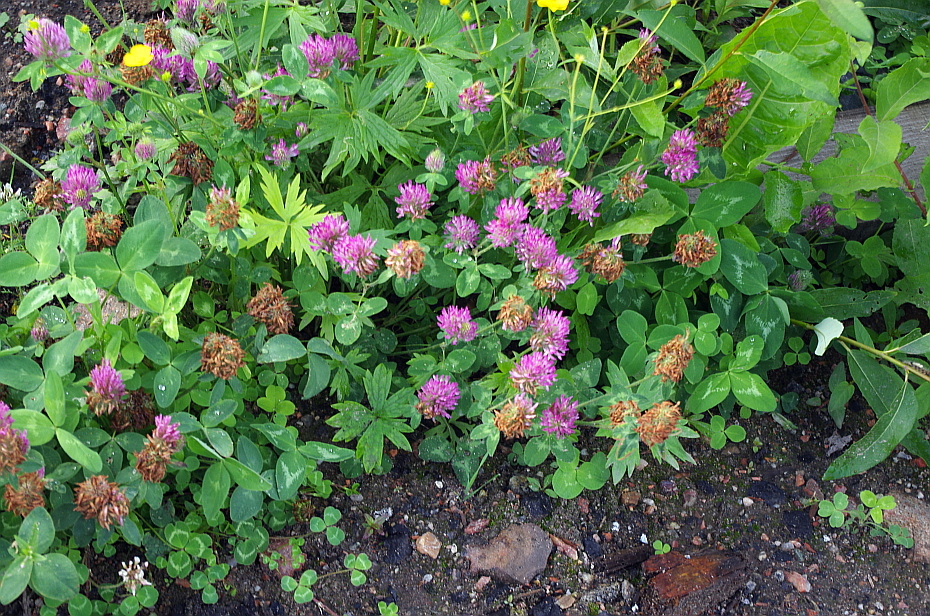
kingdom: Plantae
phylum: Tracheophyta
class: Magnoliopsida
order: Ranunculales
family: Ranunculaceae
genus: Ranunculus
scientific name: Ranunculus propinquus
